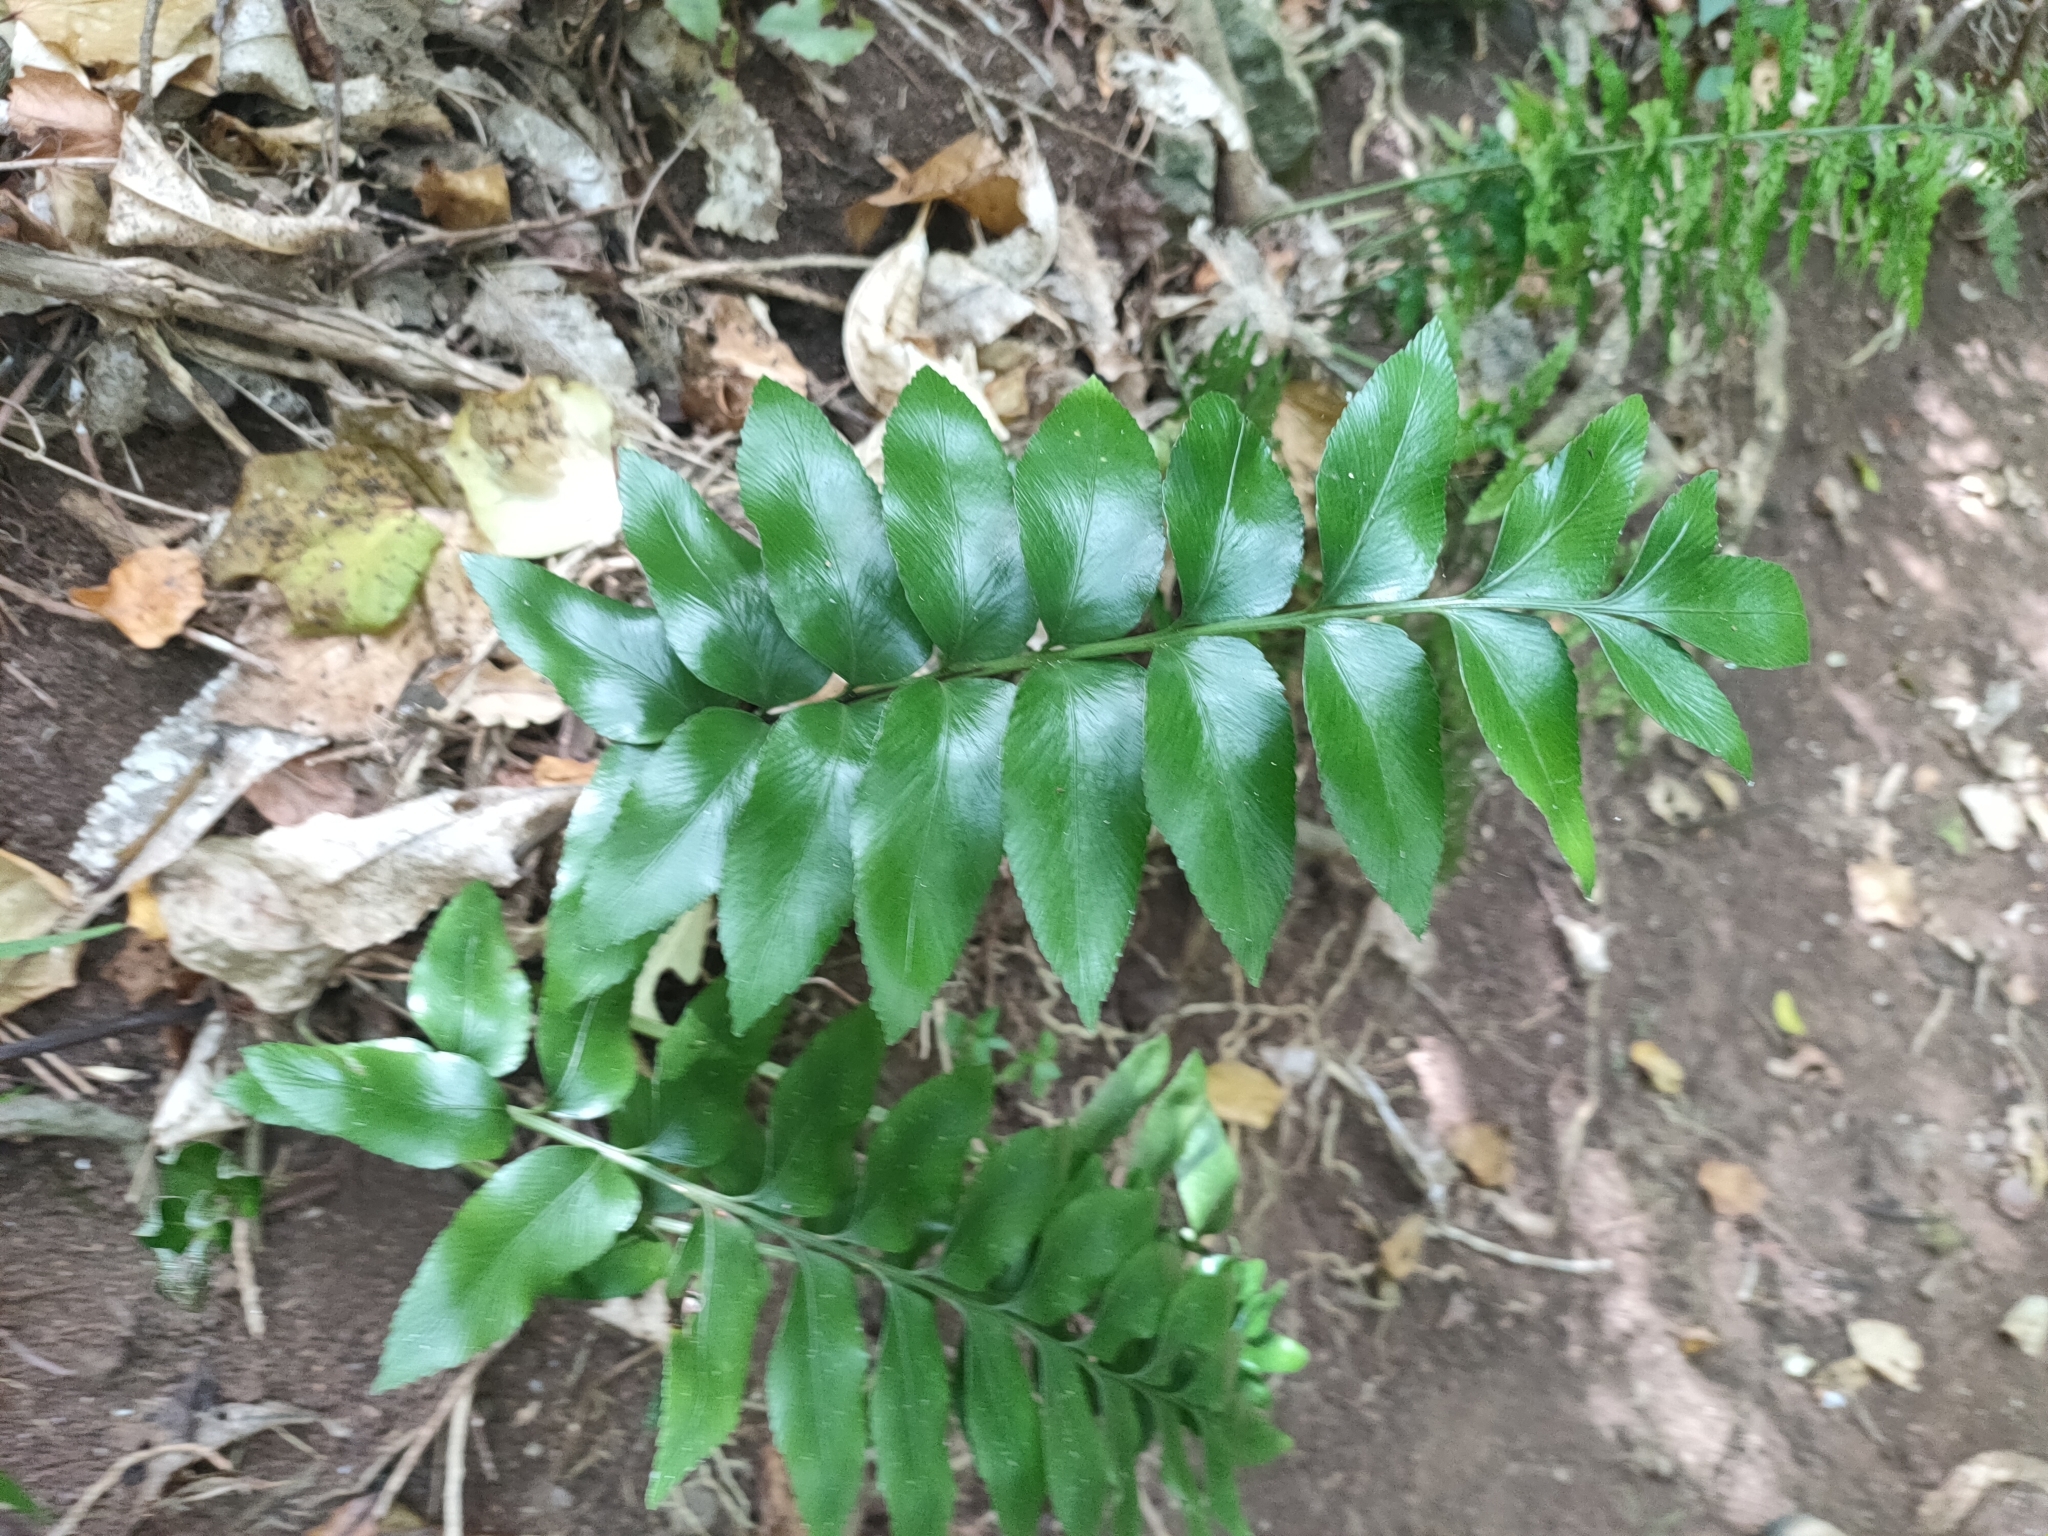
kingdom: Plantae
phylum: Tracheophyta
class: Polypodiopsida
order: Polypodiales
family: Aspleniaceae
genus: Asplenium
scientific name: Asplenium oblongifolium
